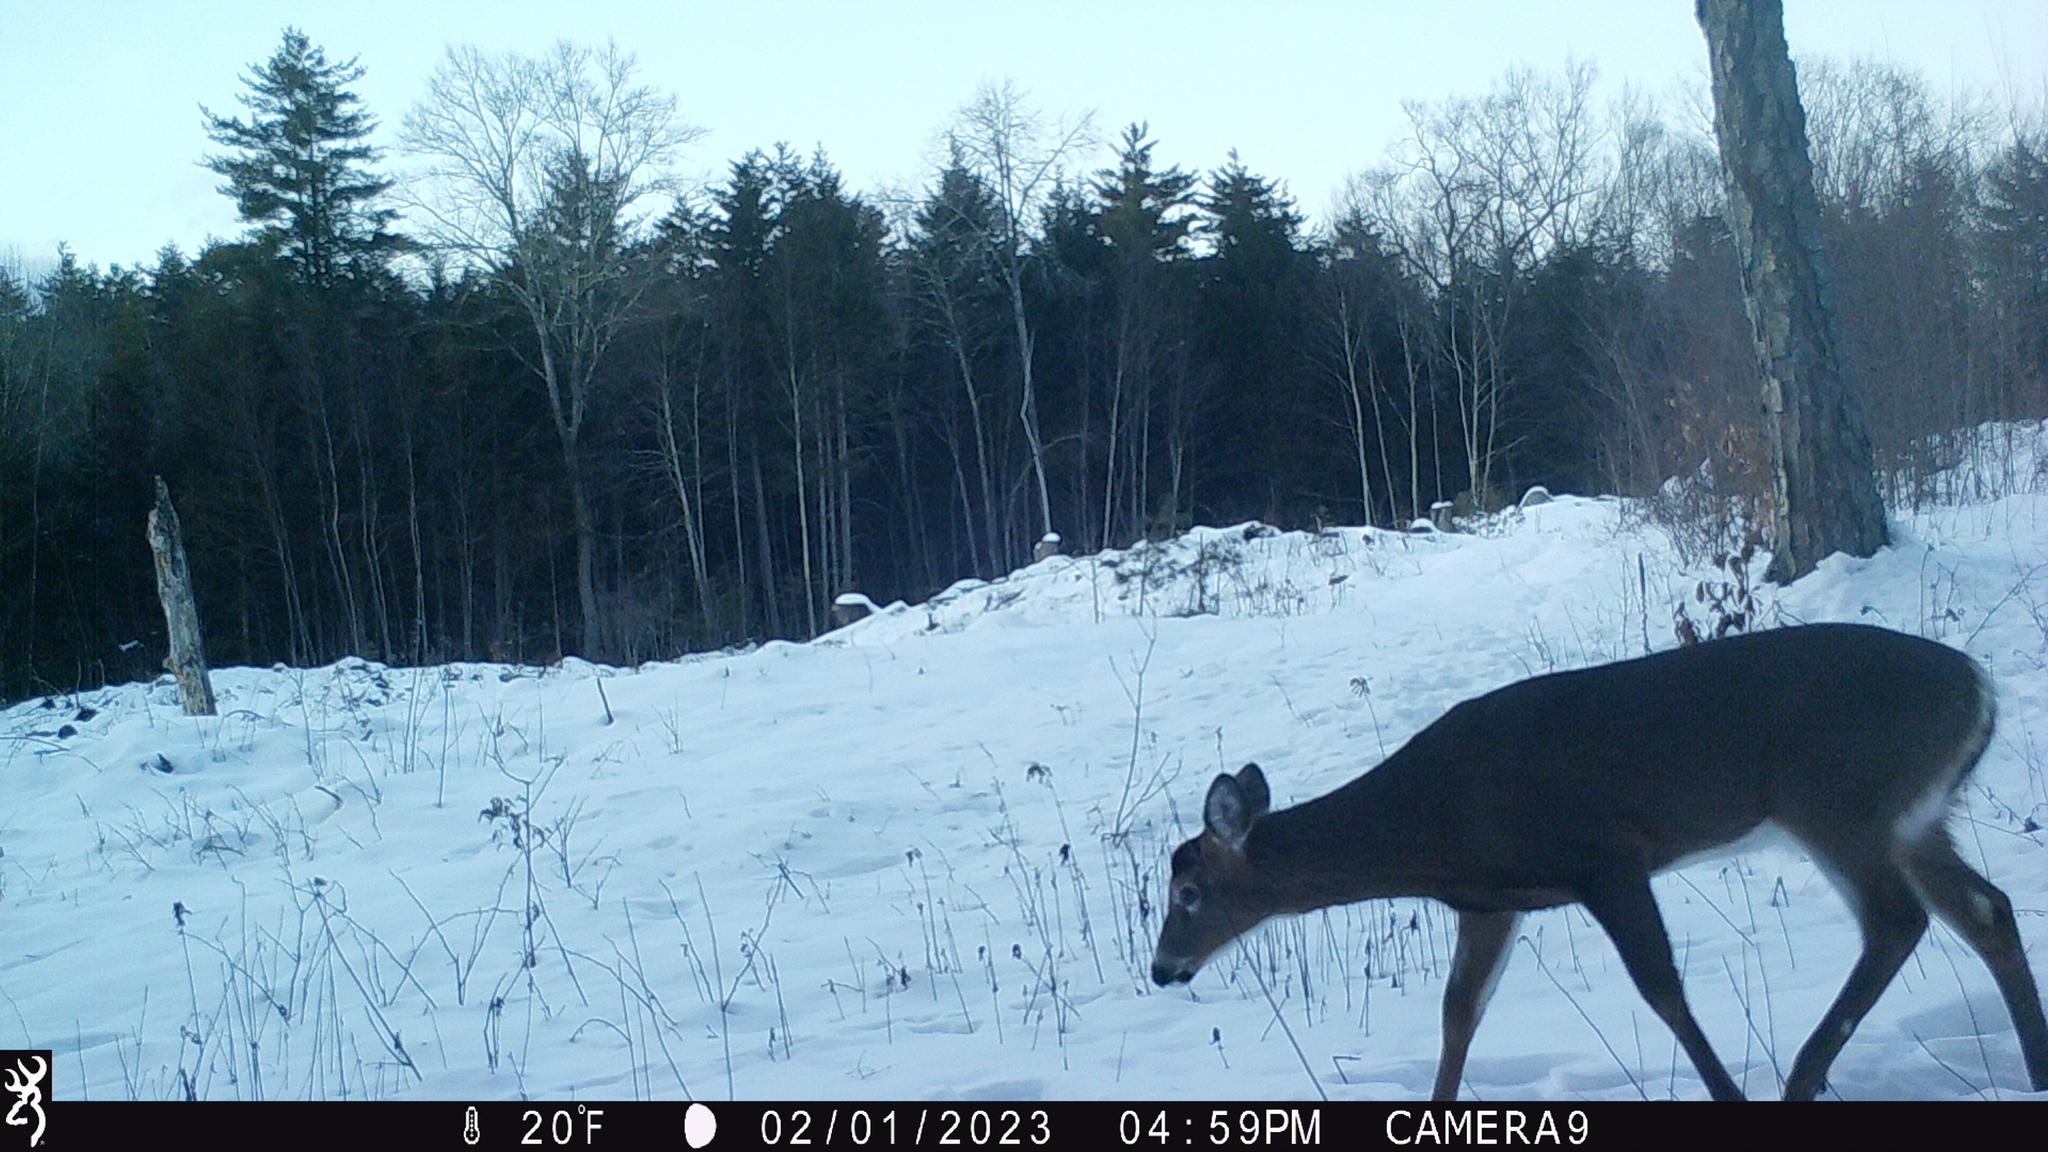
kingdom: Animalia
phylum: Chordata
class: Mammalia
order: Artiodactyla
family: Cervidae
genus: Odocoileus
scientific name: Odocoileus virginianus
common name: White-tailed deer
